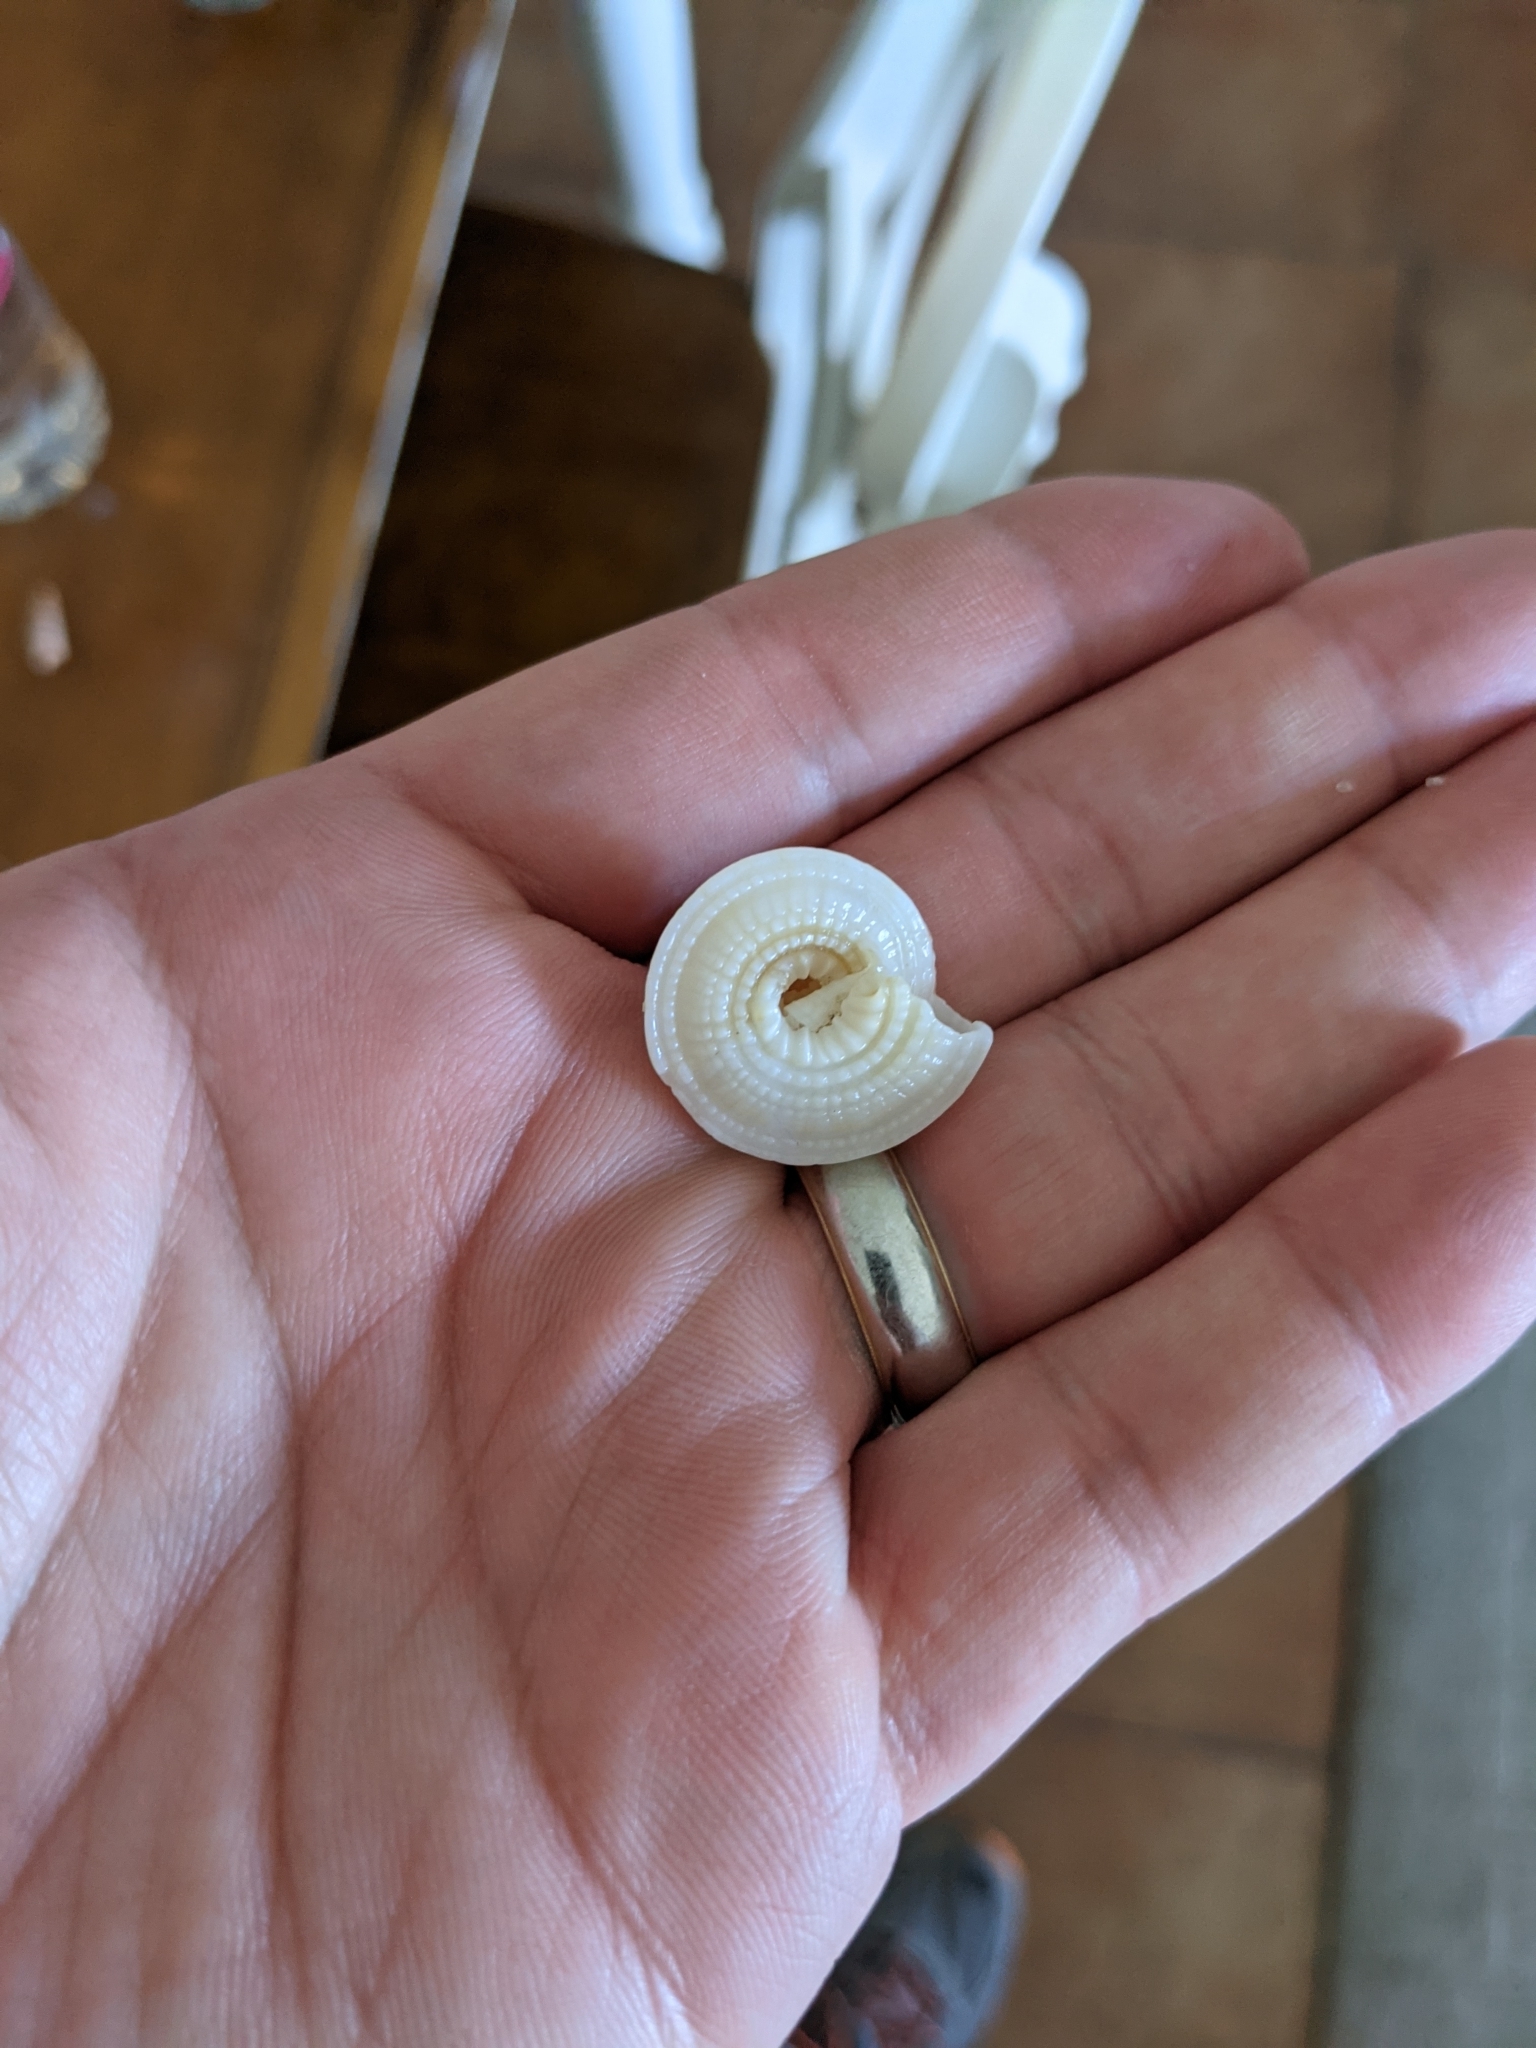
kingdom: Animalia
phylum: Mollusca
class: Gastropoda
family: Architectonicidae
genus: Architectonica
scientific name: Architectonica nobilis
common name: Common sundial
